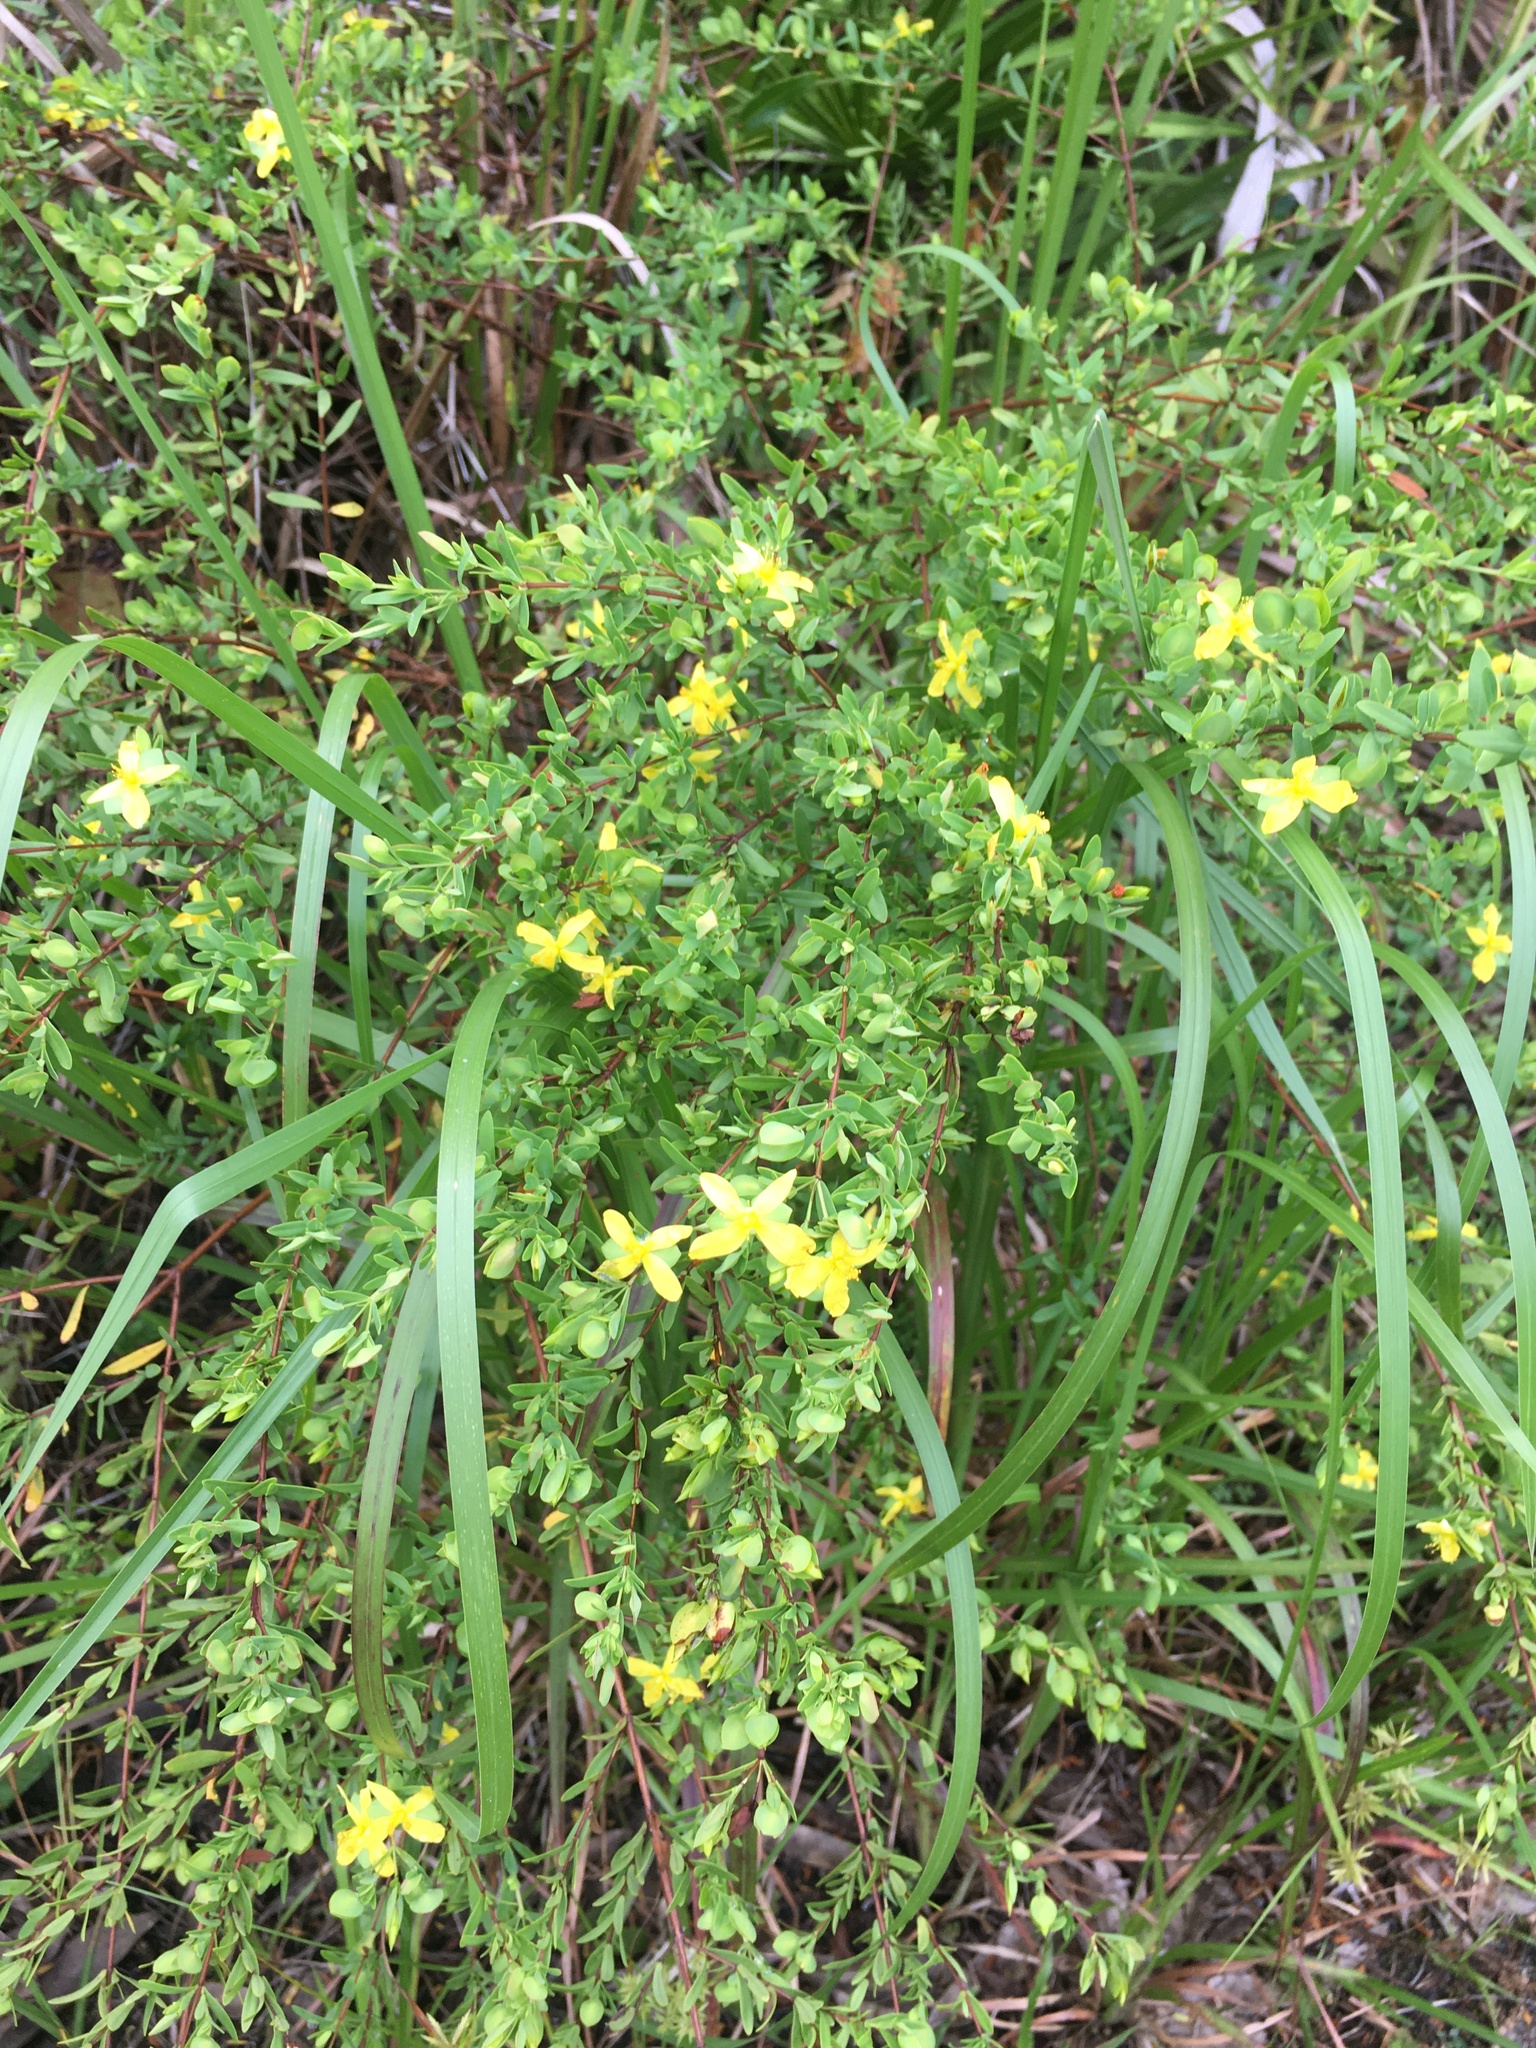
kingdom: Plantae
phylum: Tracheophyta
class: Magnoliopsida
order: Malpighiales
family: Hypericaceae
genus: Hypericum
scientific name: Hypericum hypericoides
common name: St. andrew's cross
